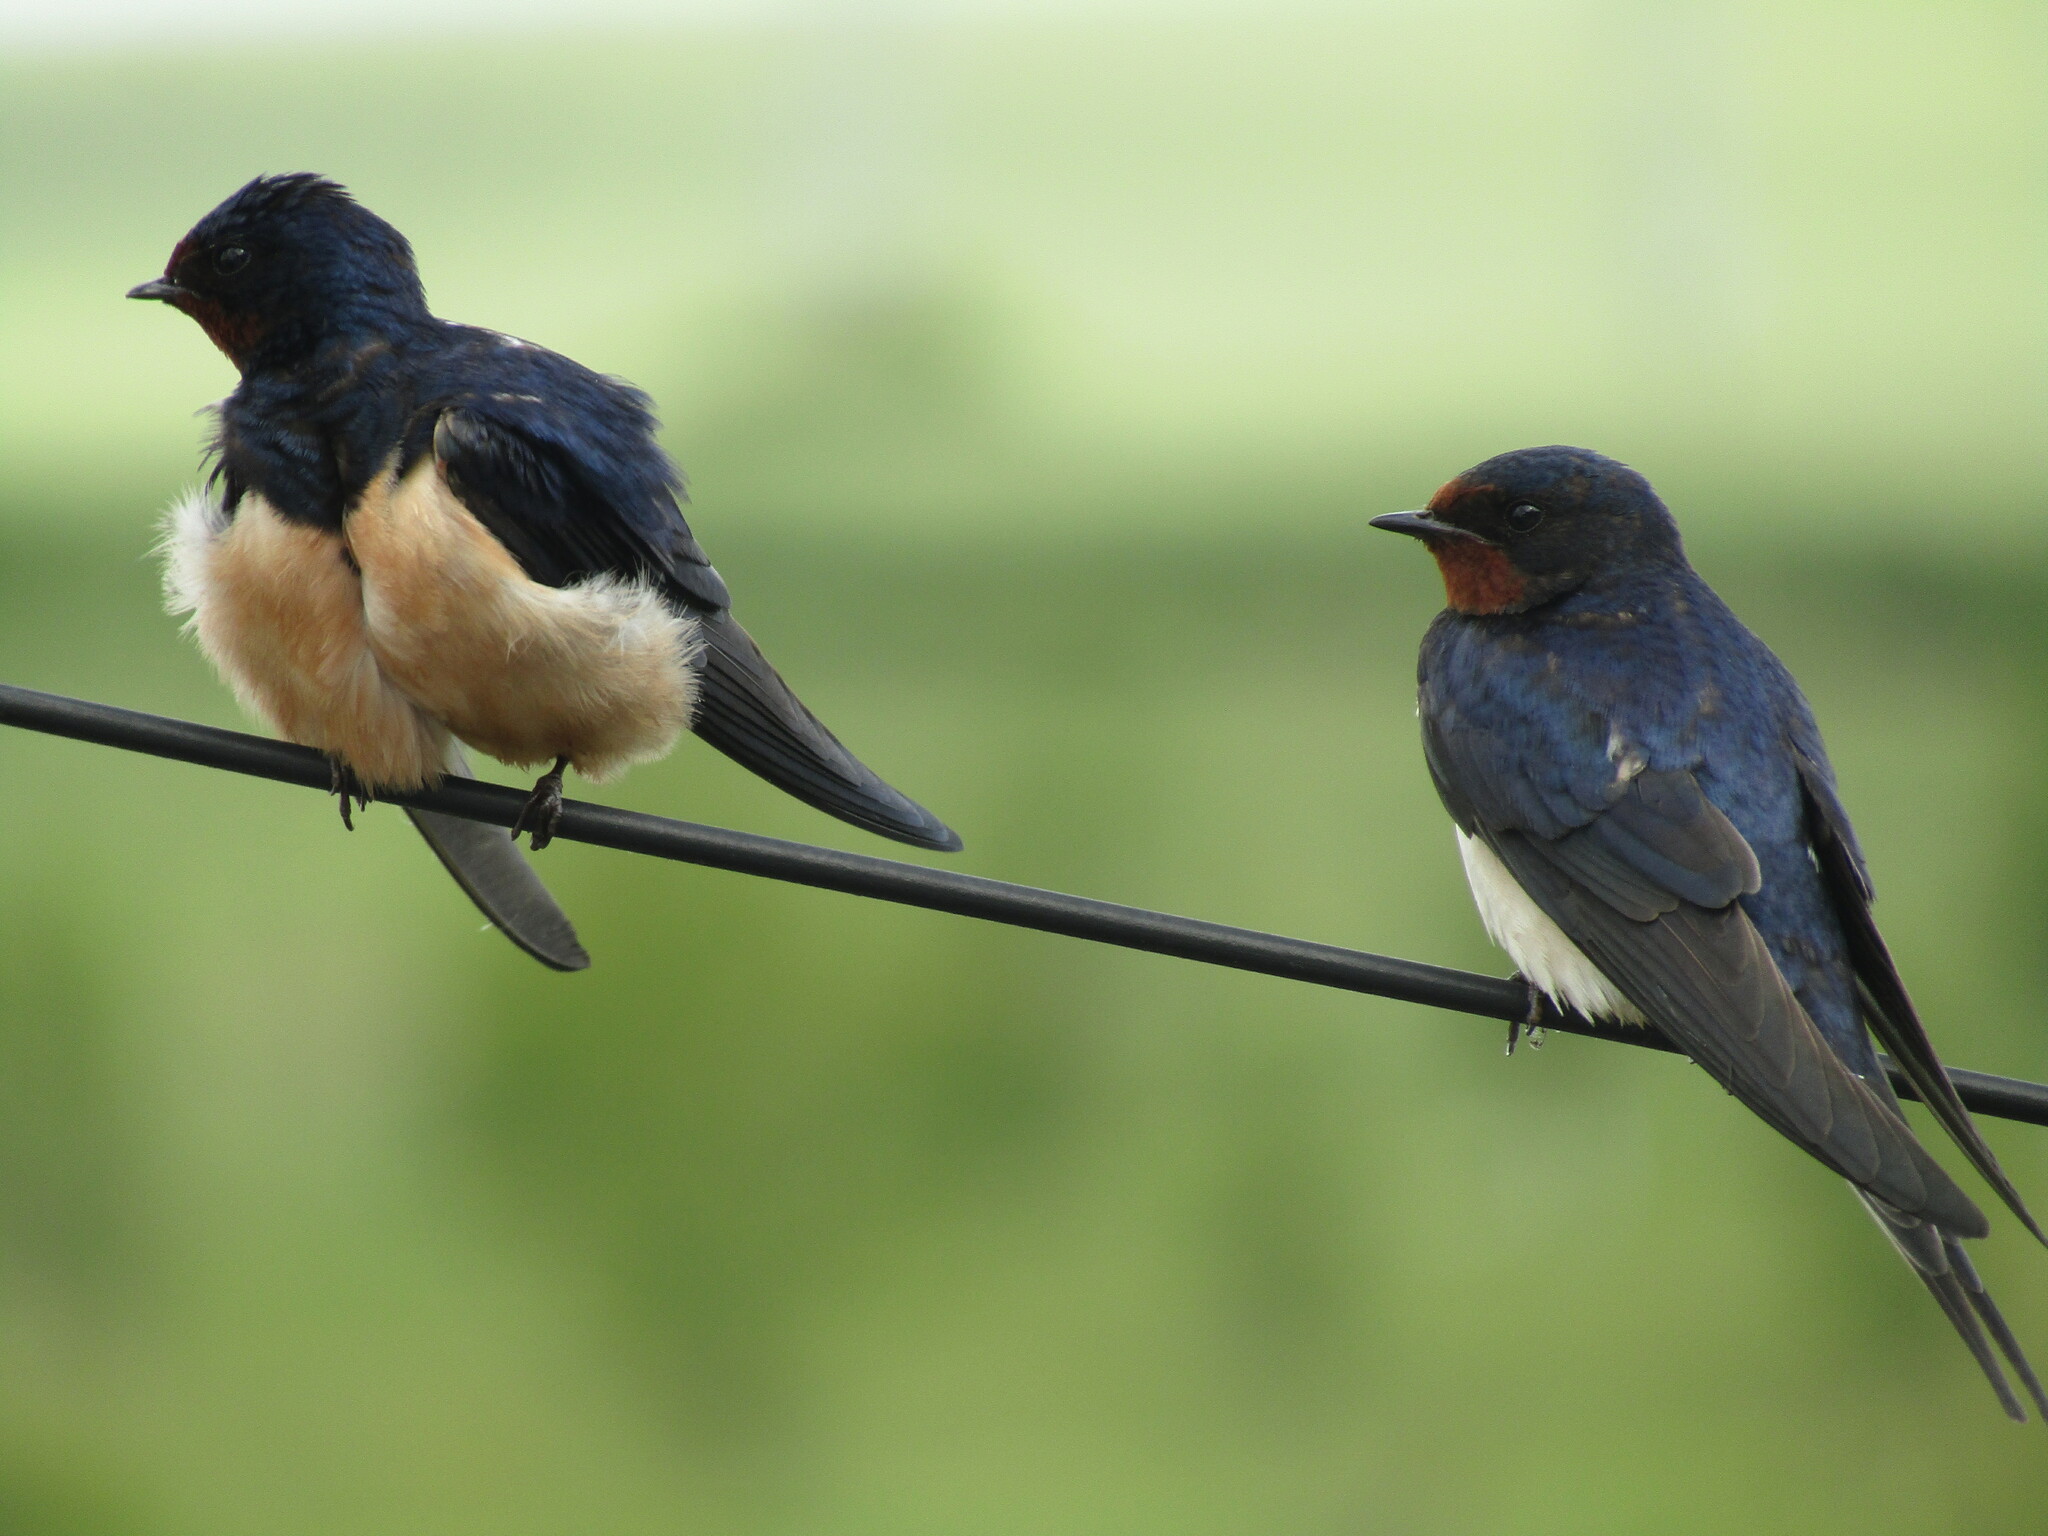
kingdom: Animalia
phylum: Chordata
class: Aves
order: Passeriformes
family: Hirundinidae
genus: Hirundo
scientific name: Hirundo rustica
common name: Barn swallow
